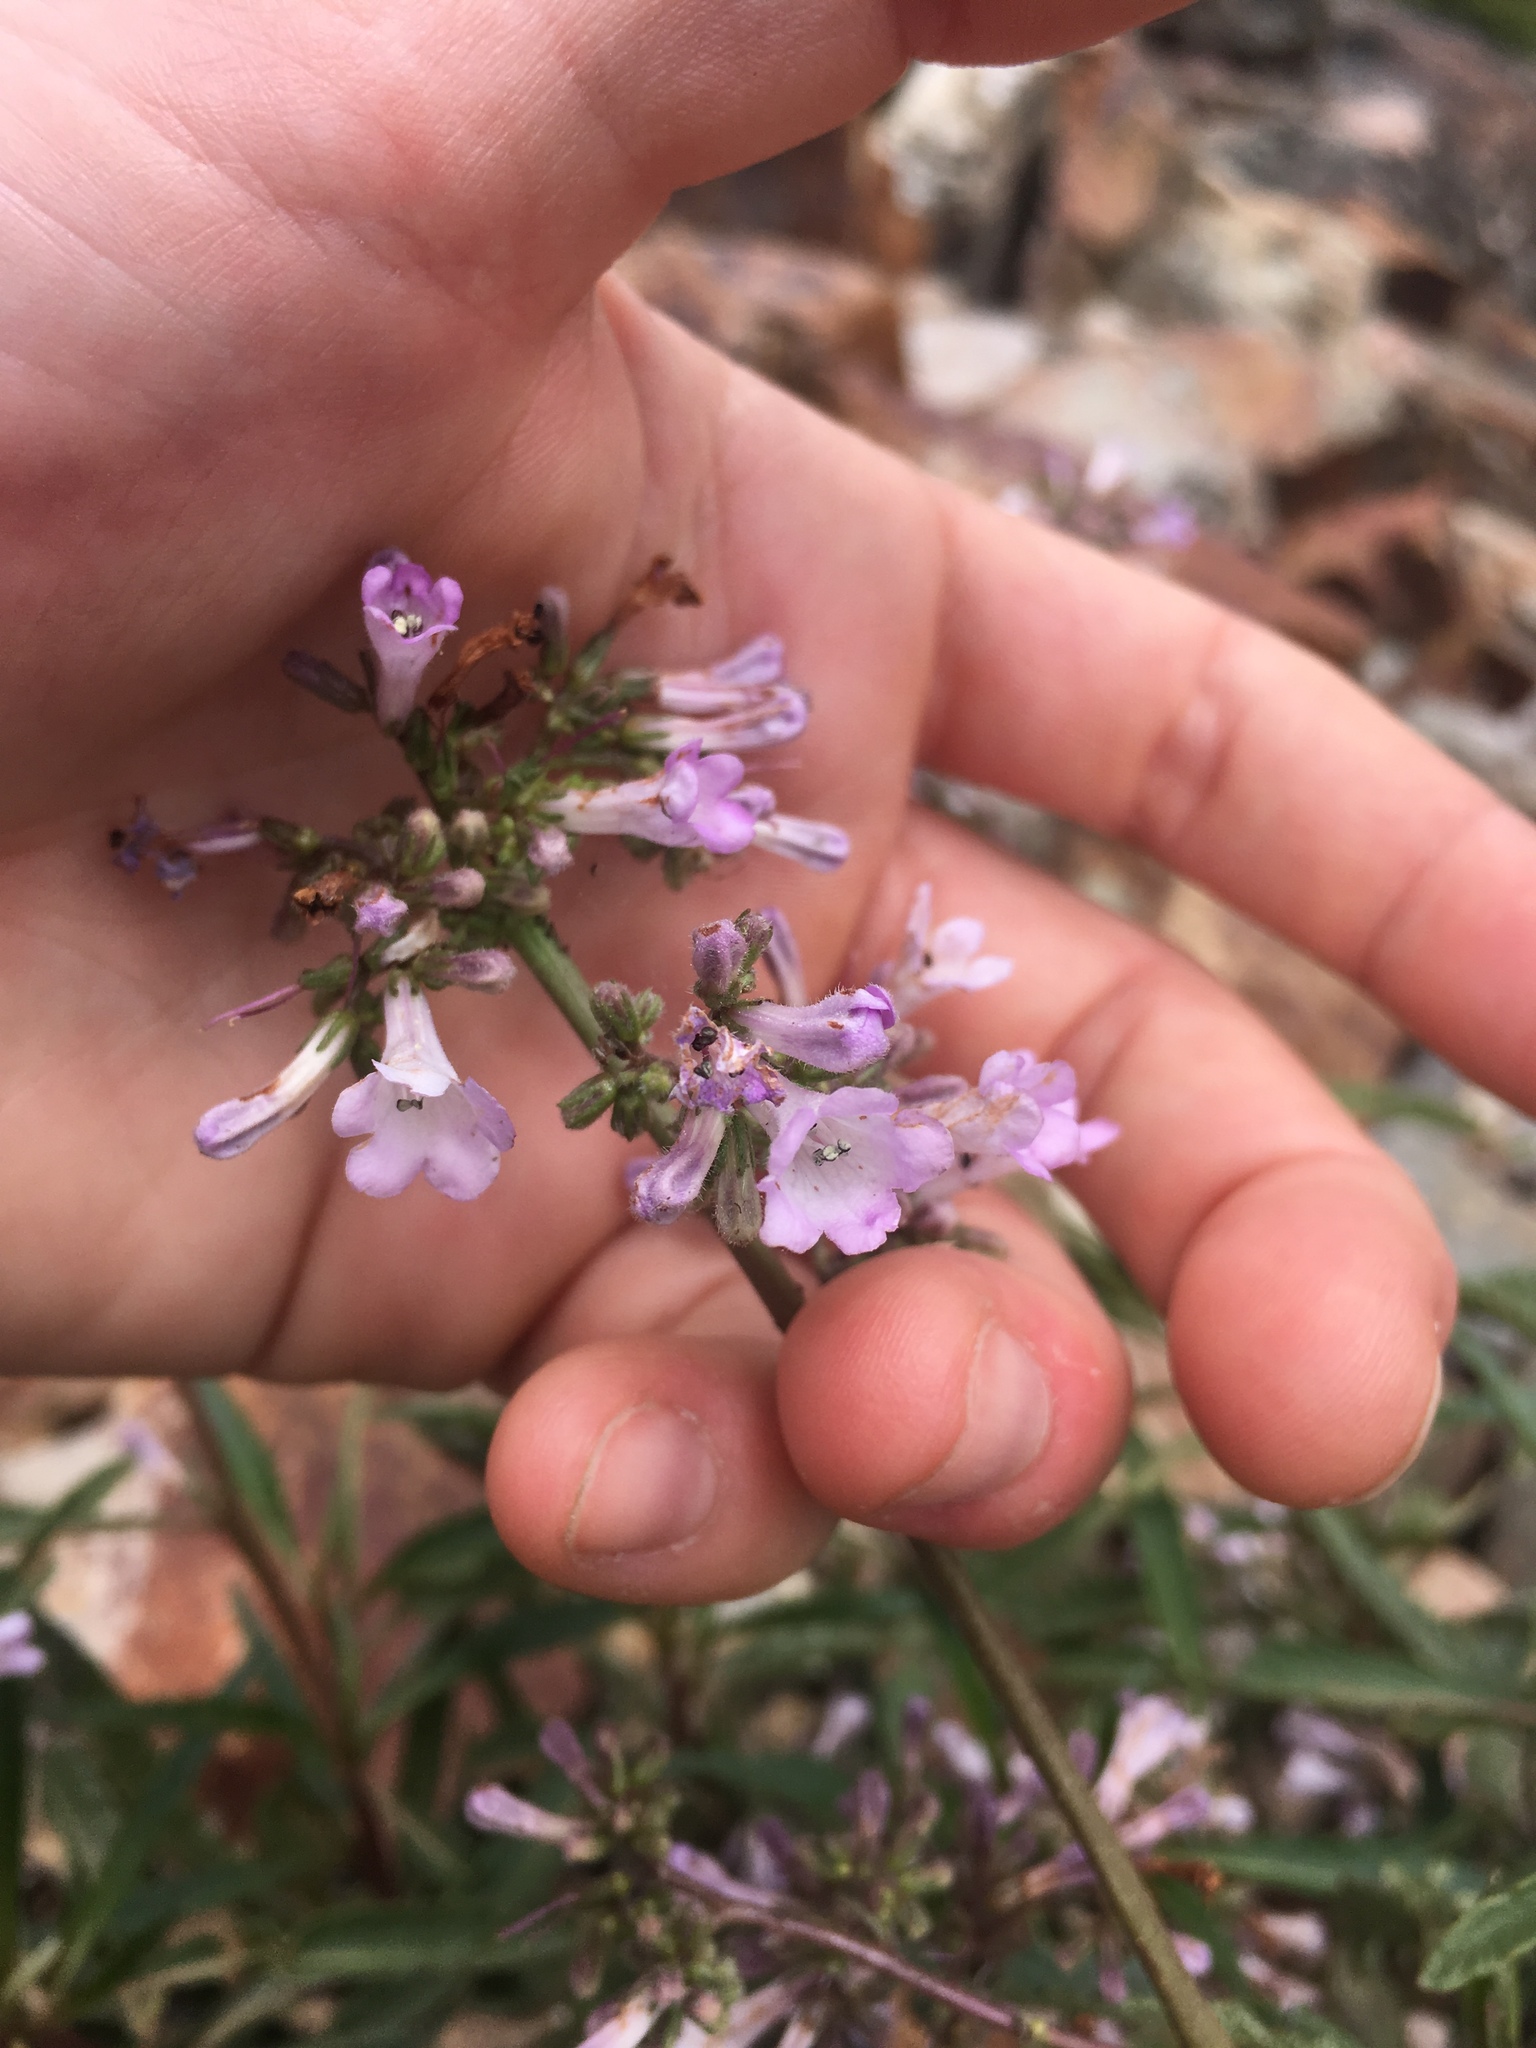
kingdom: Plantae
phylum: Tracheophyta
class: Magnoliopsida
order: Boraginales
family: Namaceae
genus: Eriodictyon
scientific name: Eriodictyon californicum
